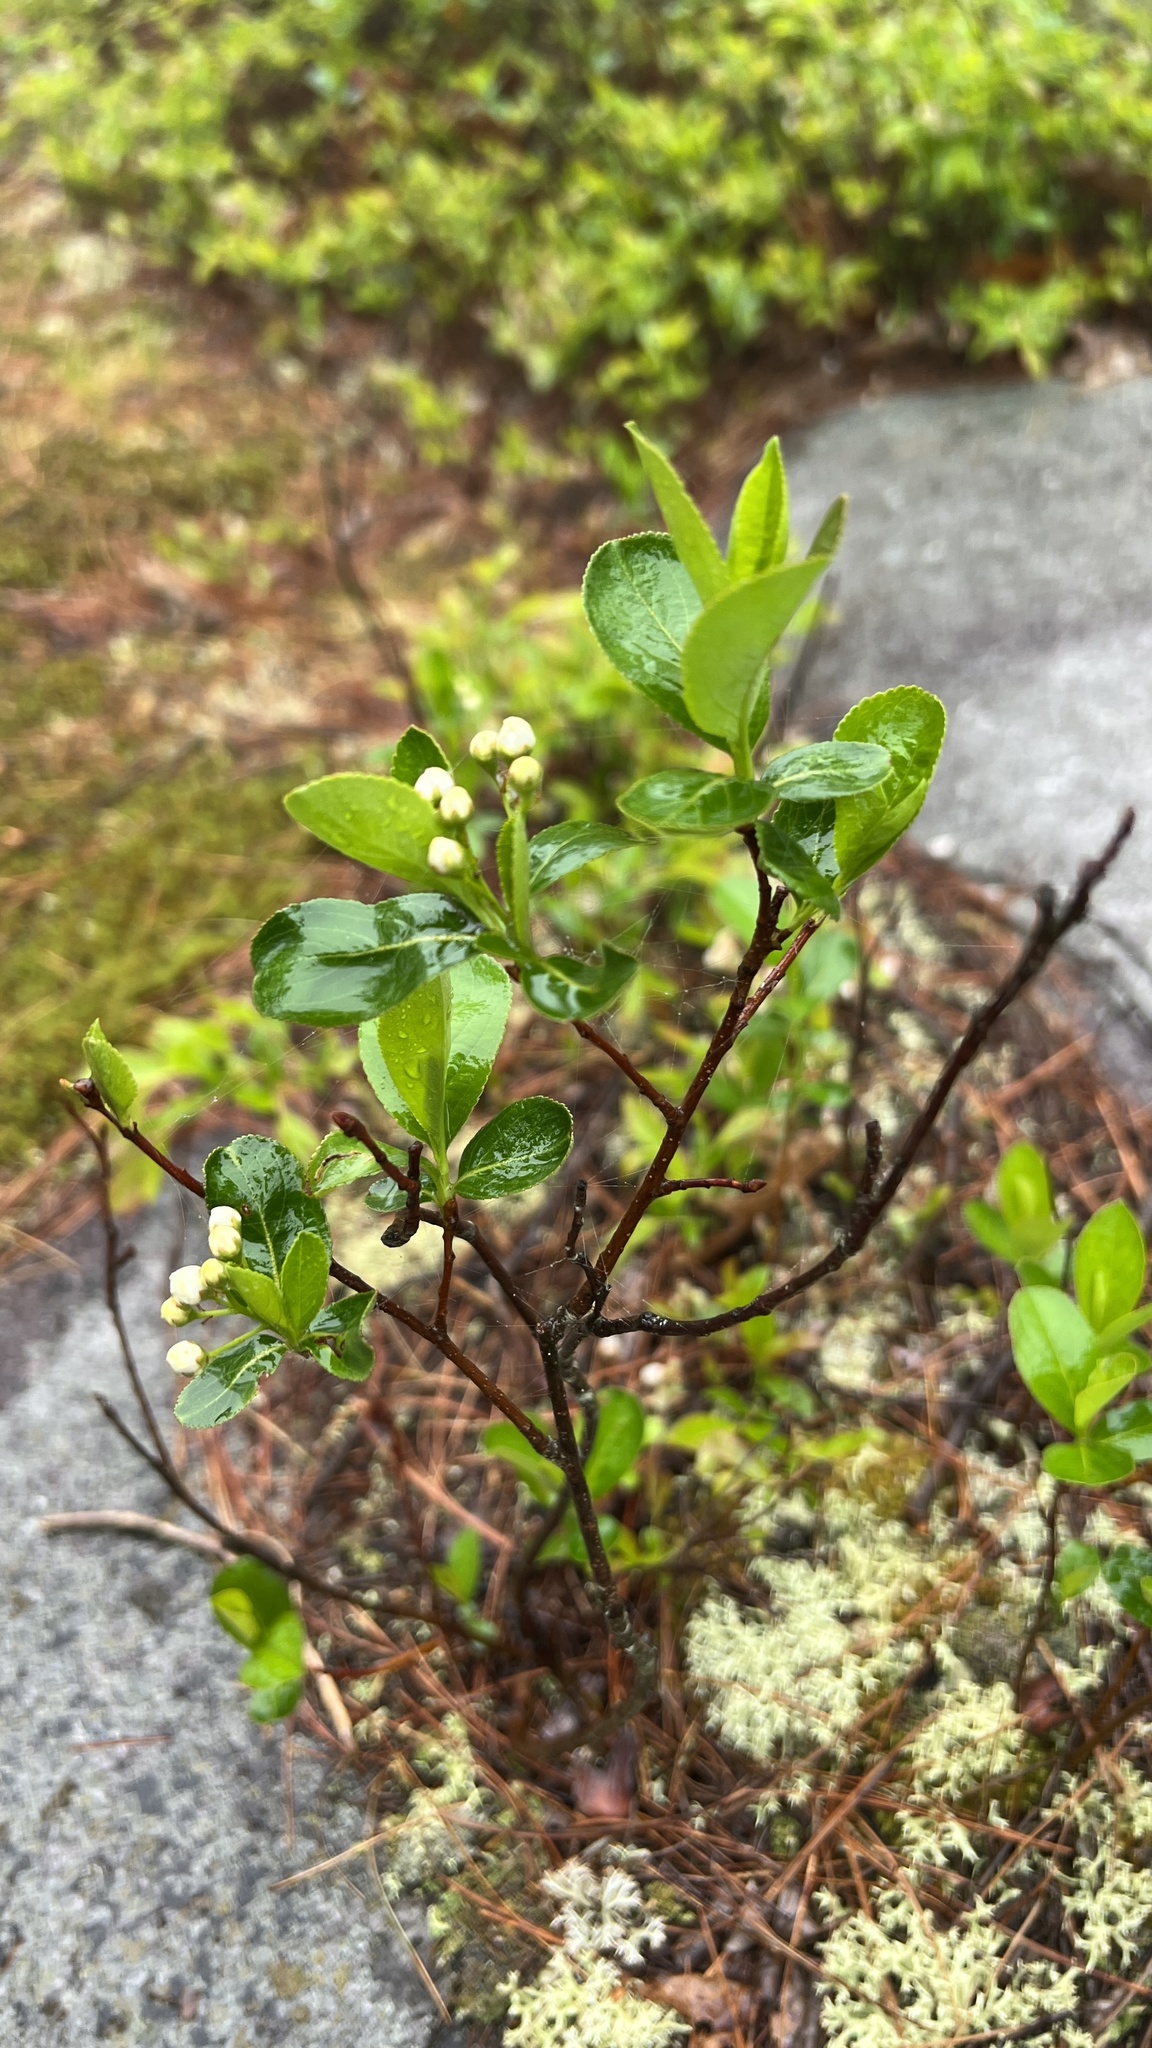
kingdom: Plantae
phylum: Tracheophyta
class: Magnoliopsida
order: Rosales
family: Rosaceae
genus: Aronia
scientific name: Aronia melanocarpa
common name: Black chokeberry
